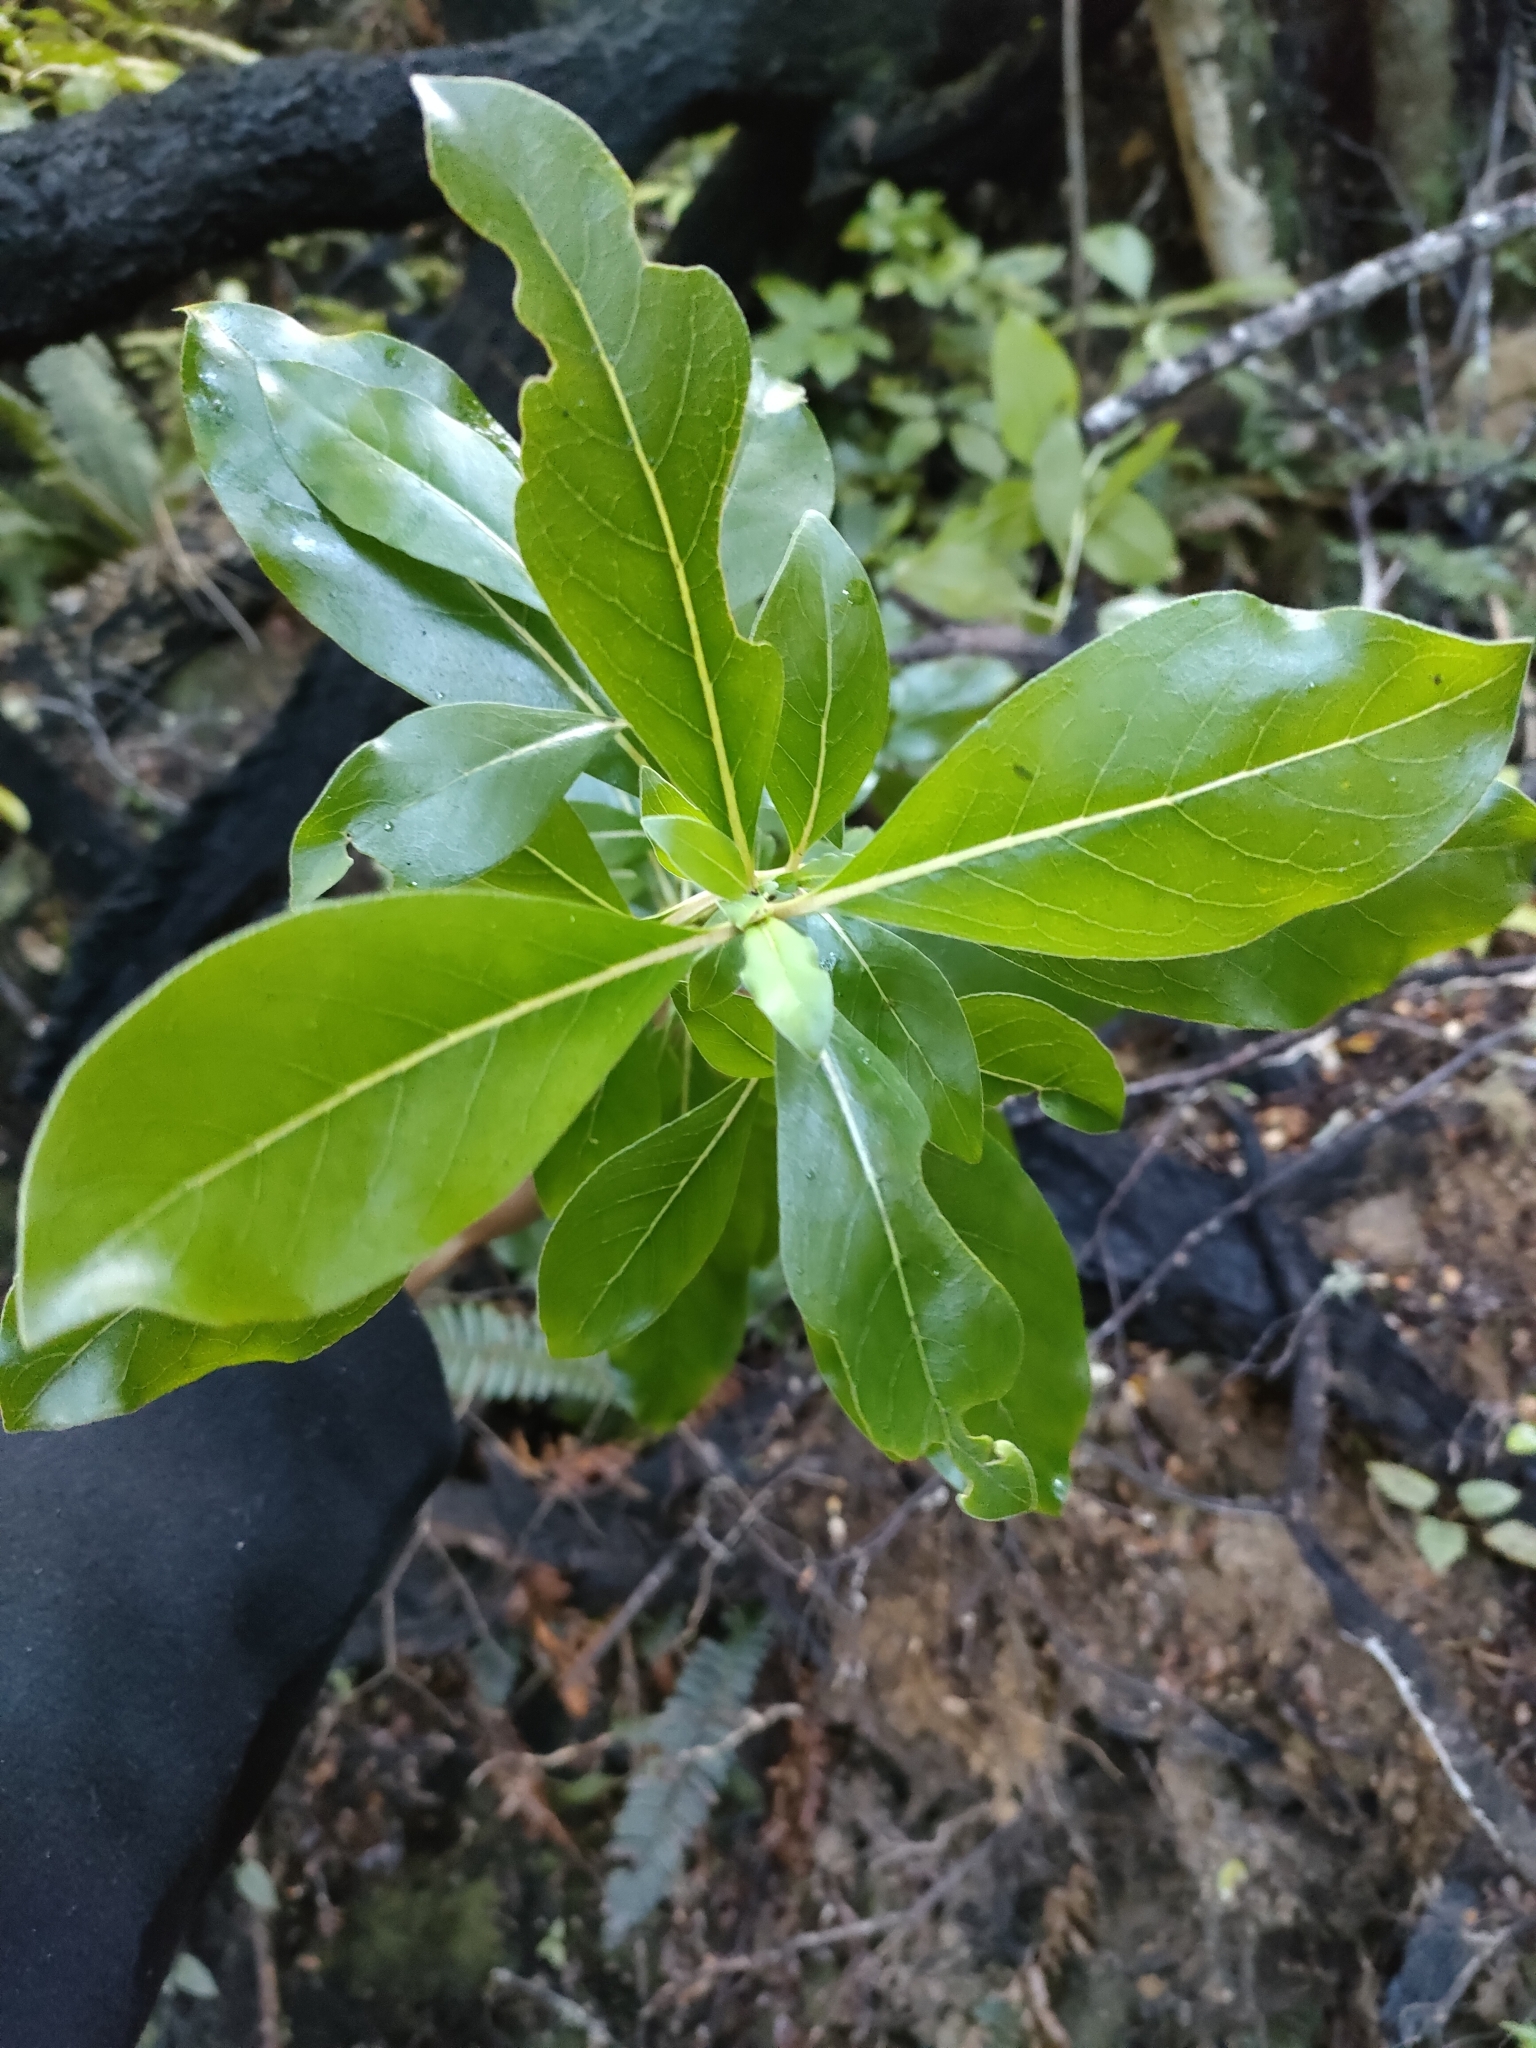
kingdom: Plantae
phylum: Tracheophyta
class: Magnoliopsida
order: Gentianales
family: Rubiaceae
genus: Coprosma
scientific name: Coprosma robusta
